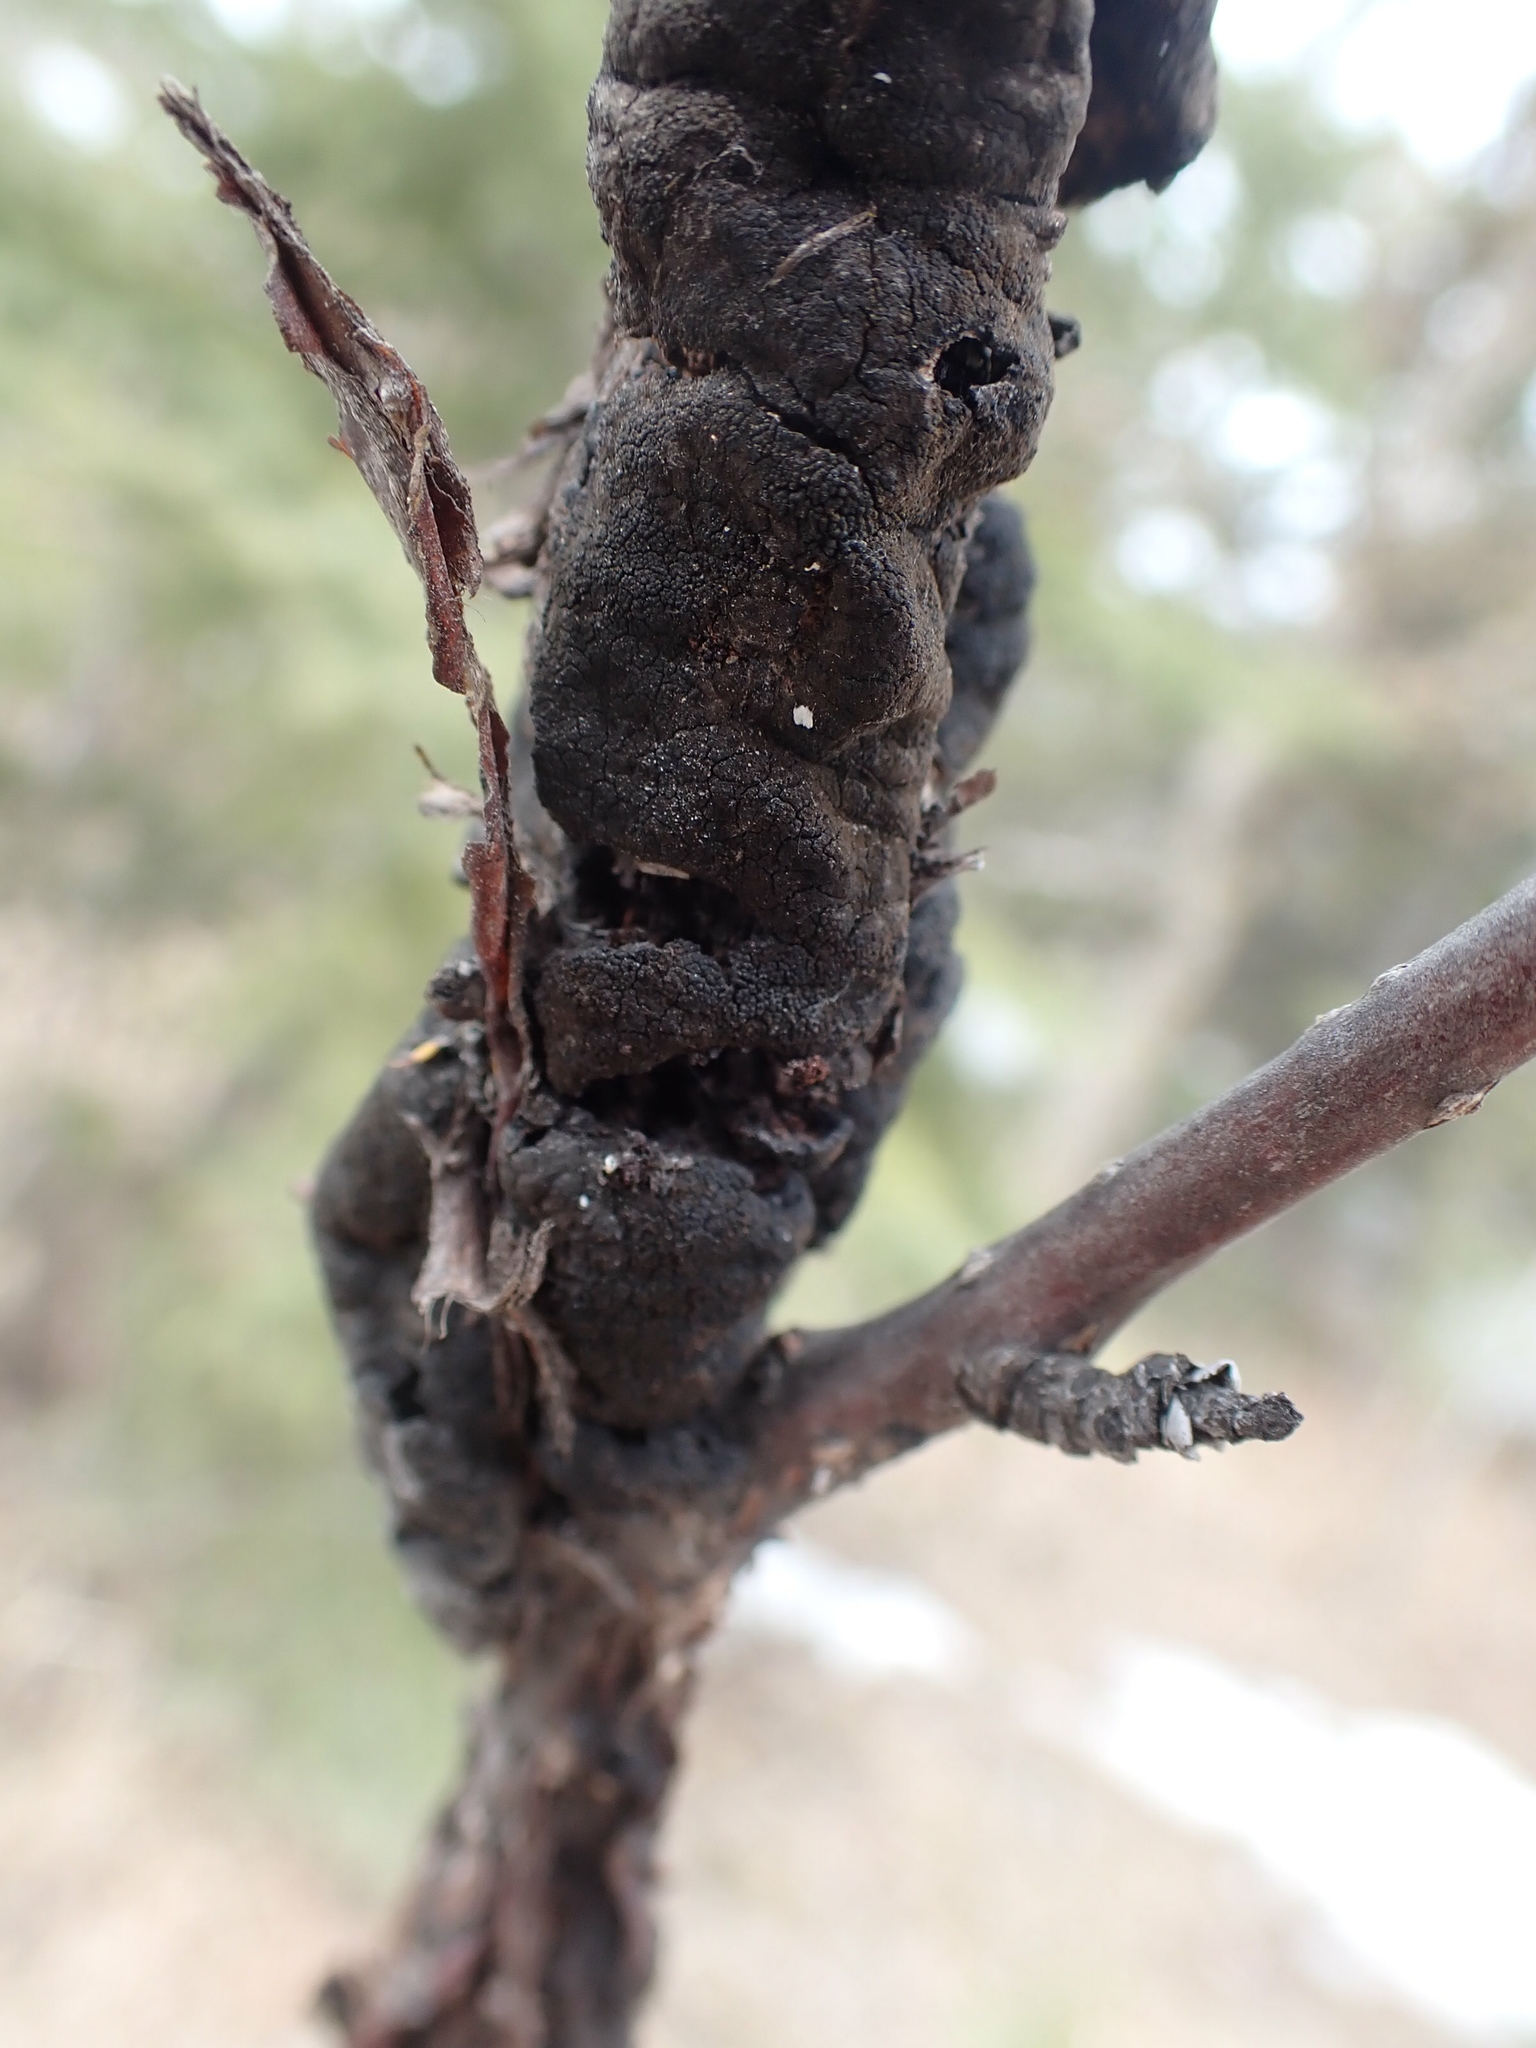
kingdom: Fungi
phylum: Ascomycota
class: Dothideomycetes
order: Venturiales
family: Venturiaceae
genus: Apiosporina
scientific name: Apiosporina morbosa
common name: Black knot
